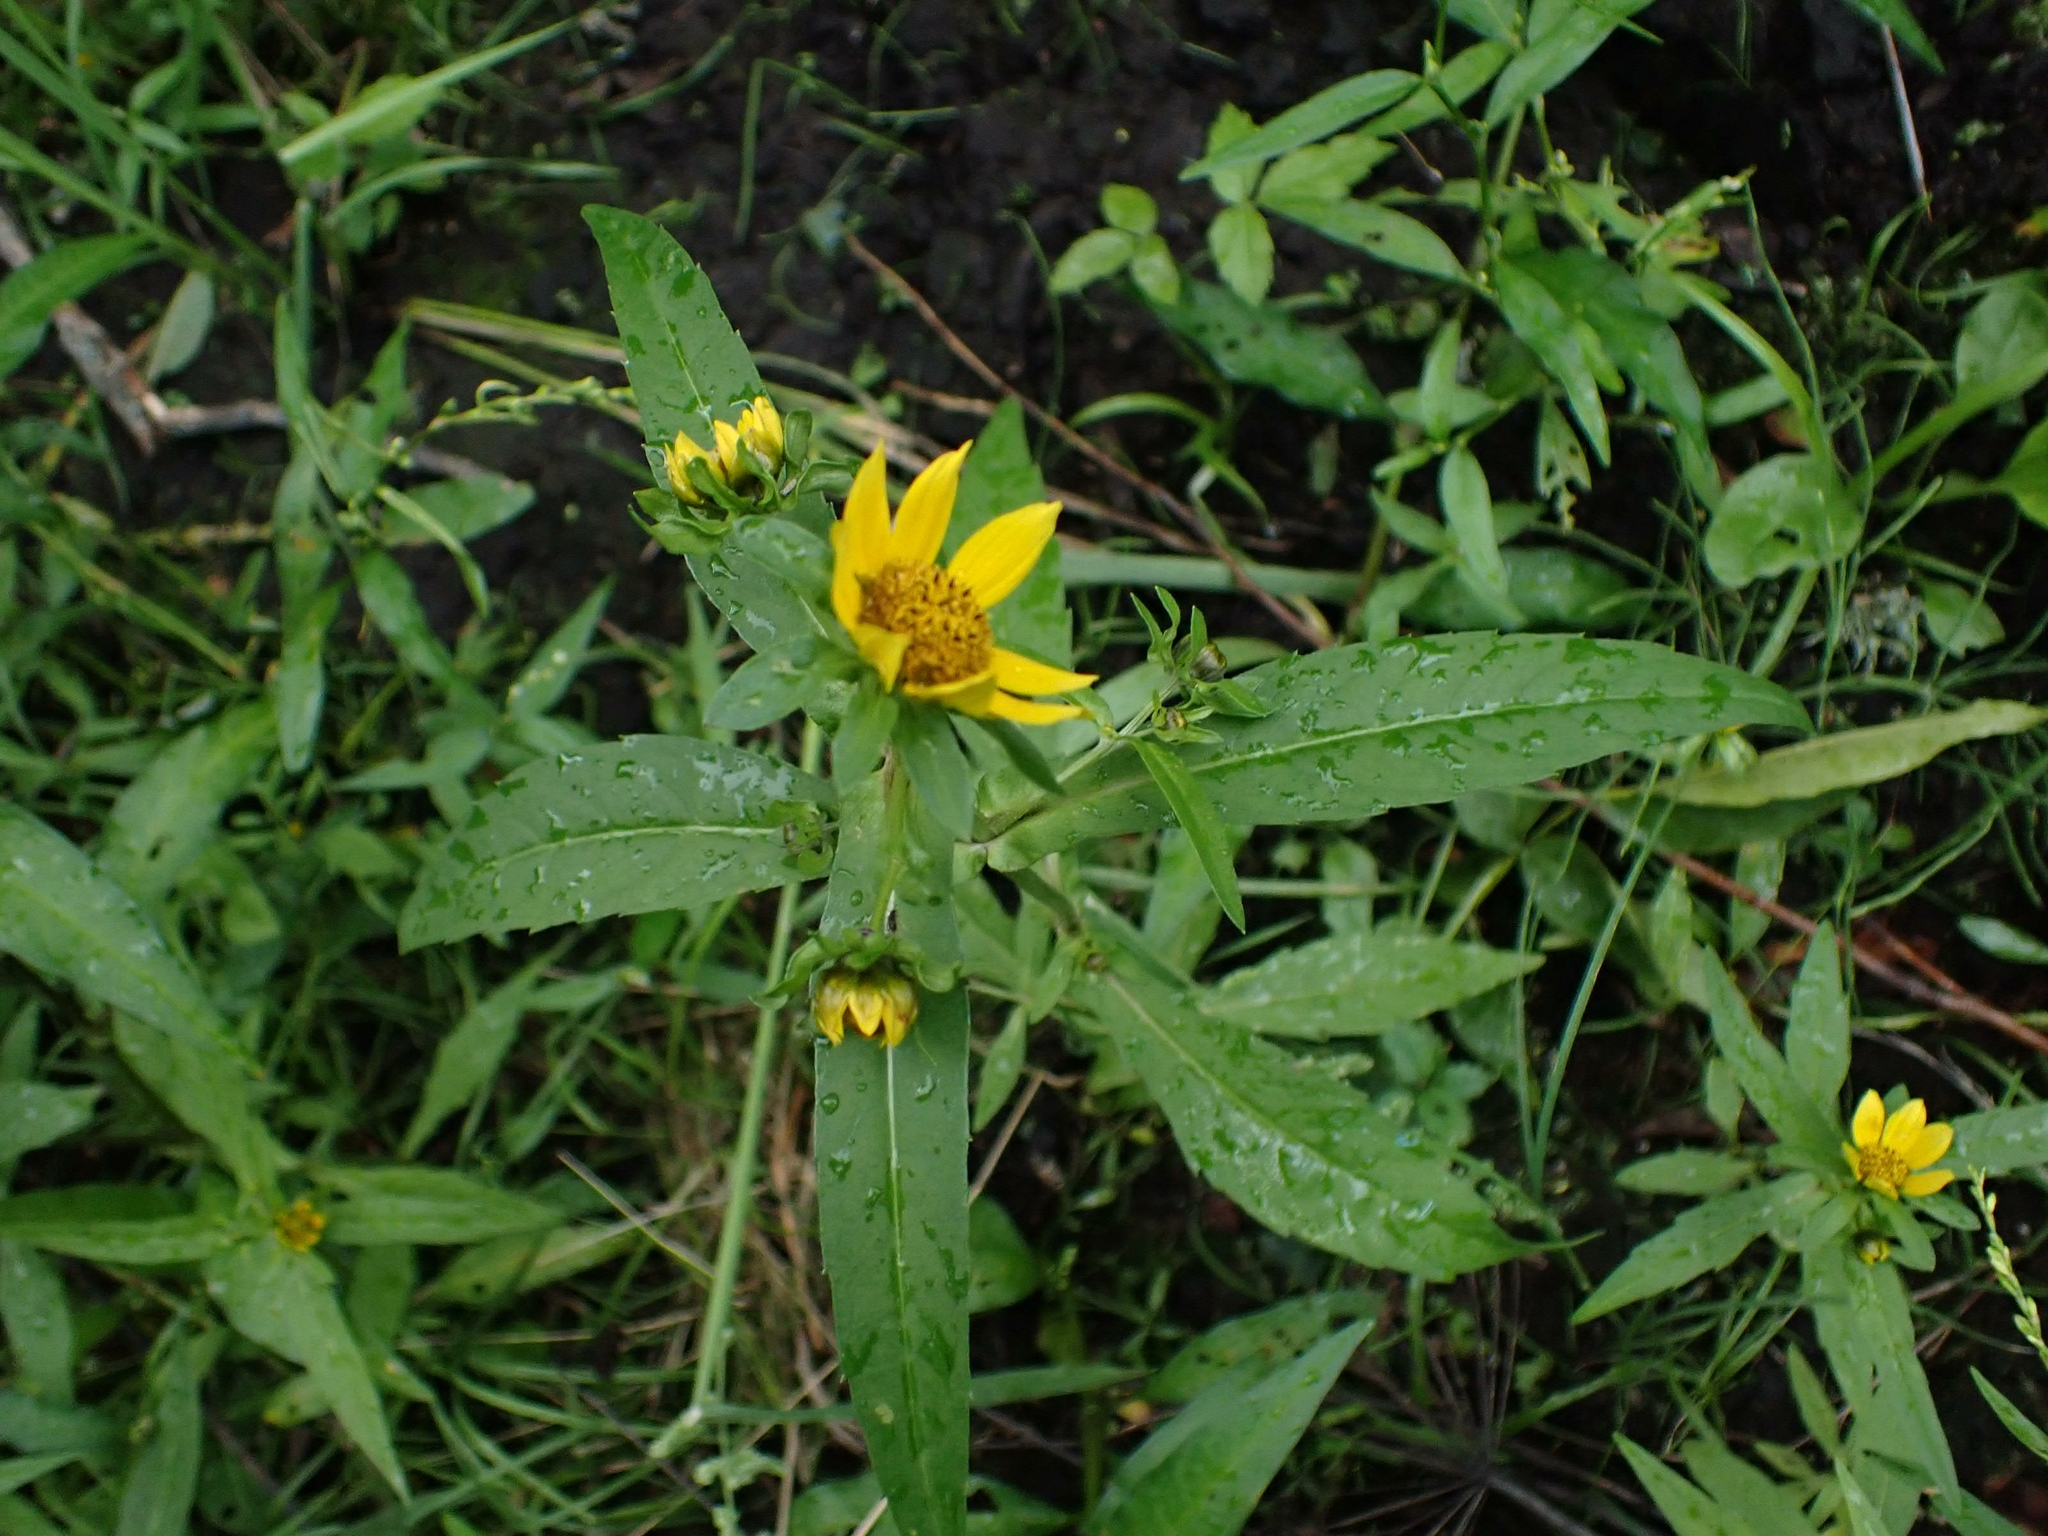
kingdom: Plantae
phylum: Tracheophyta
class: Magnoliopsida
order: Asterales
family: Asteraceae
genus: Bidens
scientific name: Bidens cernua
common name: Nodding bur-marigold
